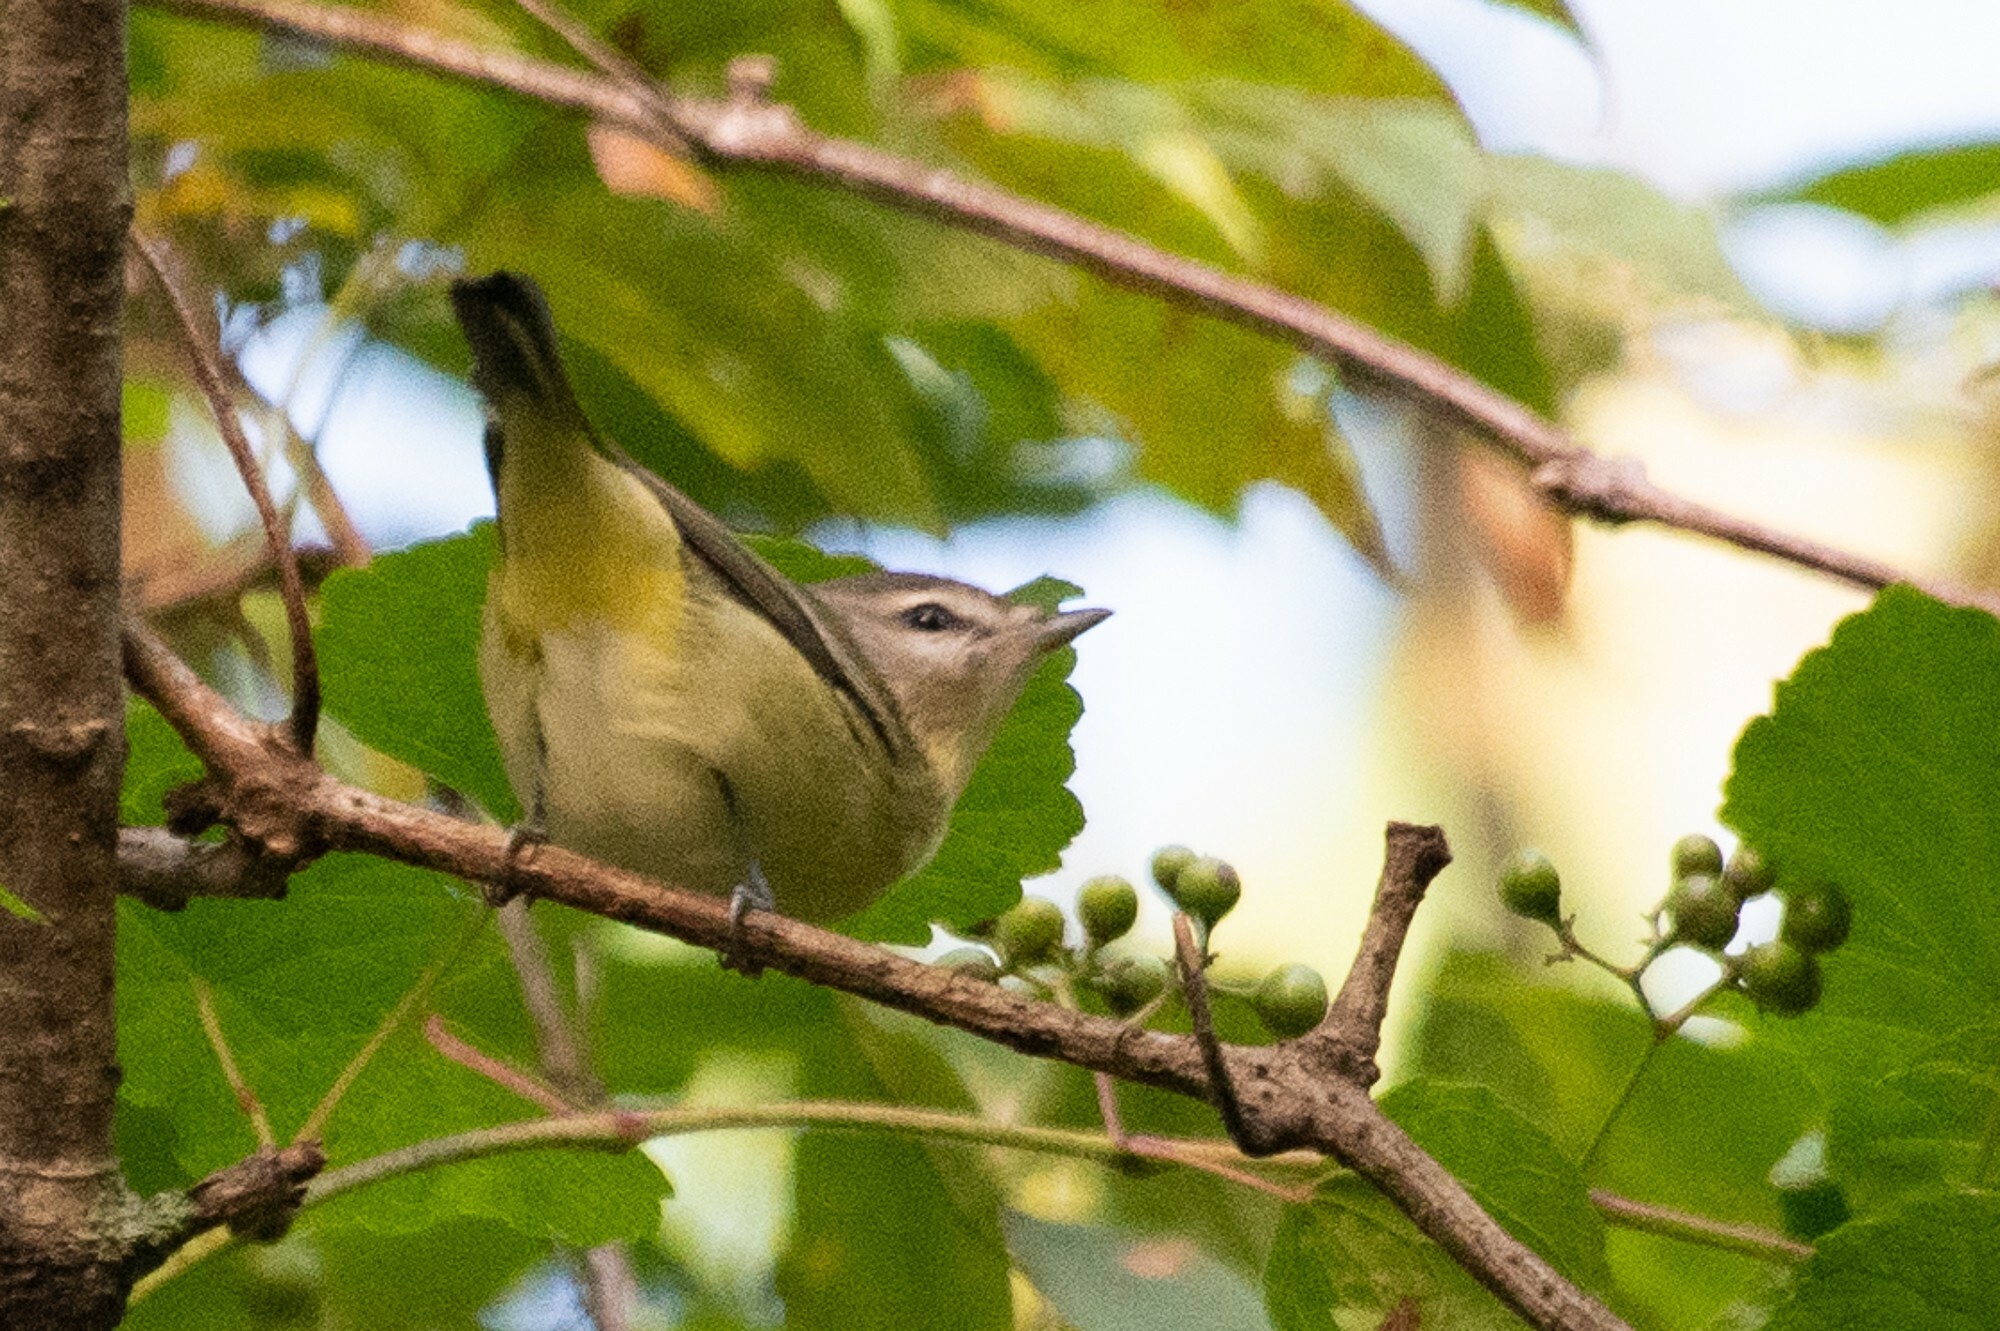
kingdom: Animalia
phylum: Chordata
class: Aves
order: Passeriformes
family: Vireonidae
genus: Vireo
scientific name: Vireo philadelphicus
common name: Philadelphia vireo
